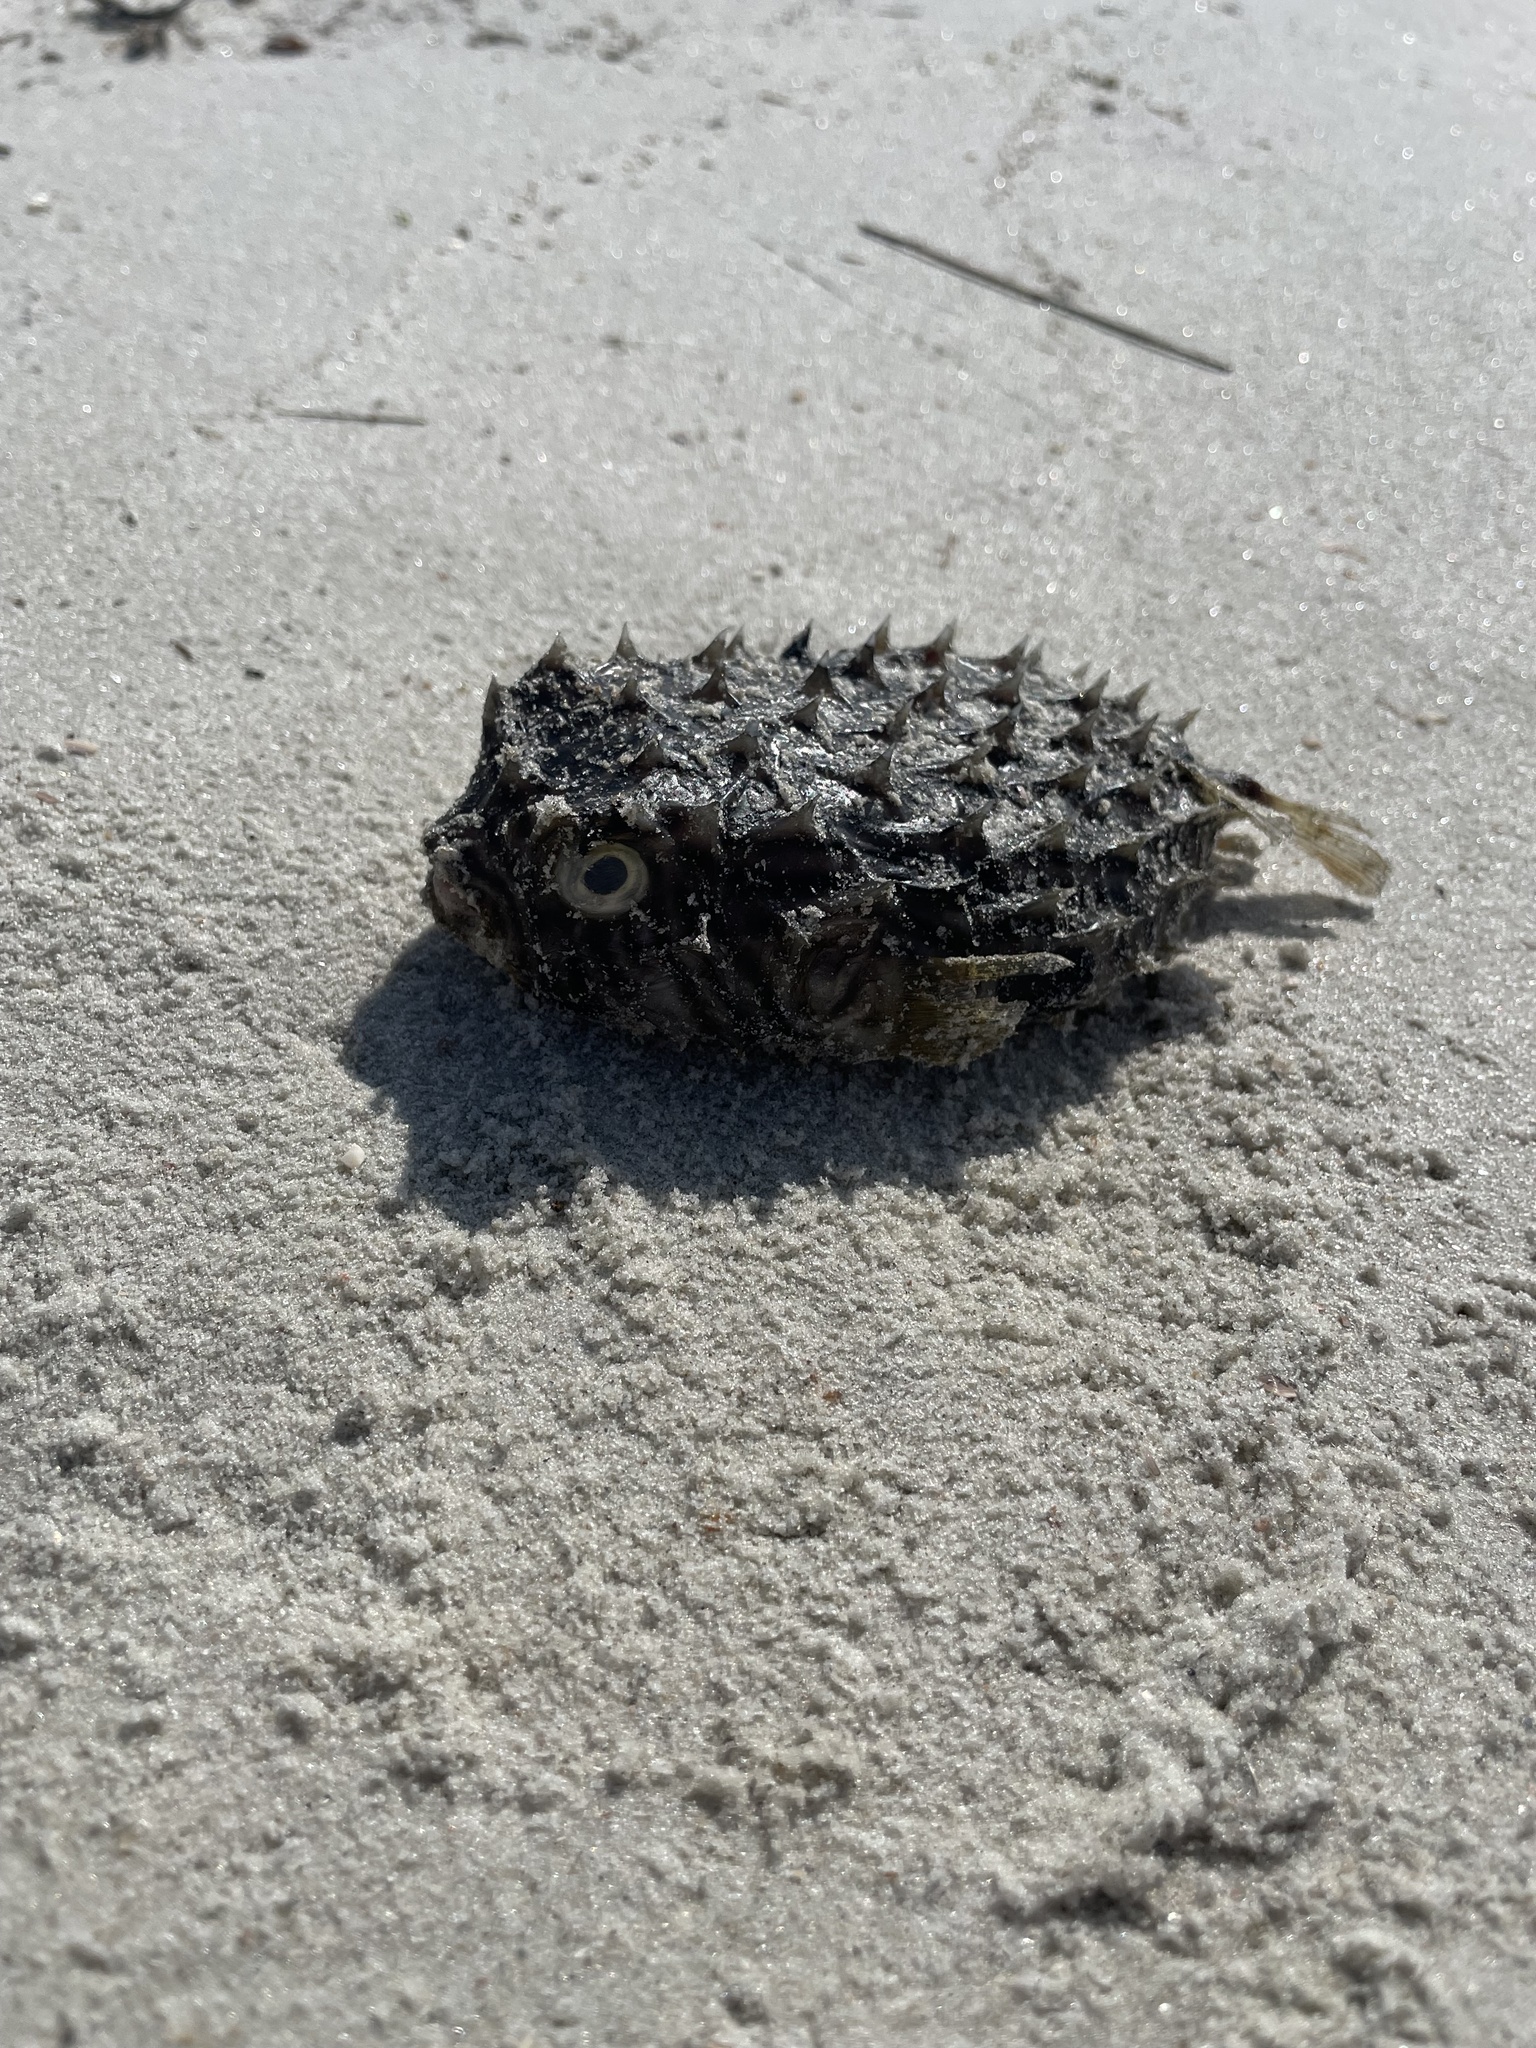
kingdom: Animalia
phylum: Chordata
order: Tetraodontiformes
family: Diodontidae
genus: Chilomycterus
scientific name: Chilomycterus schoepfii
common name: Striped burrfish
